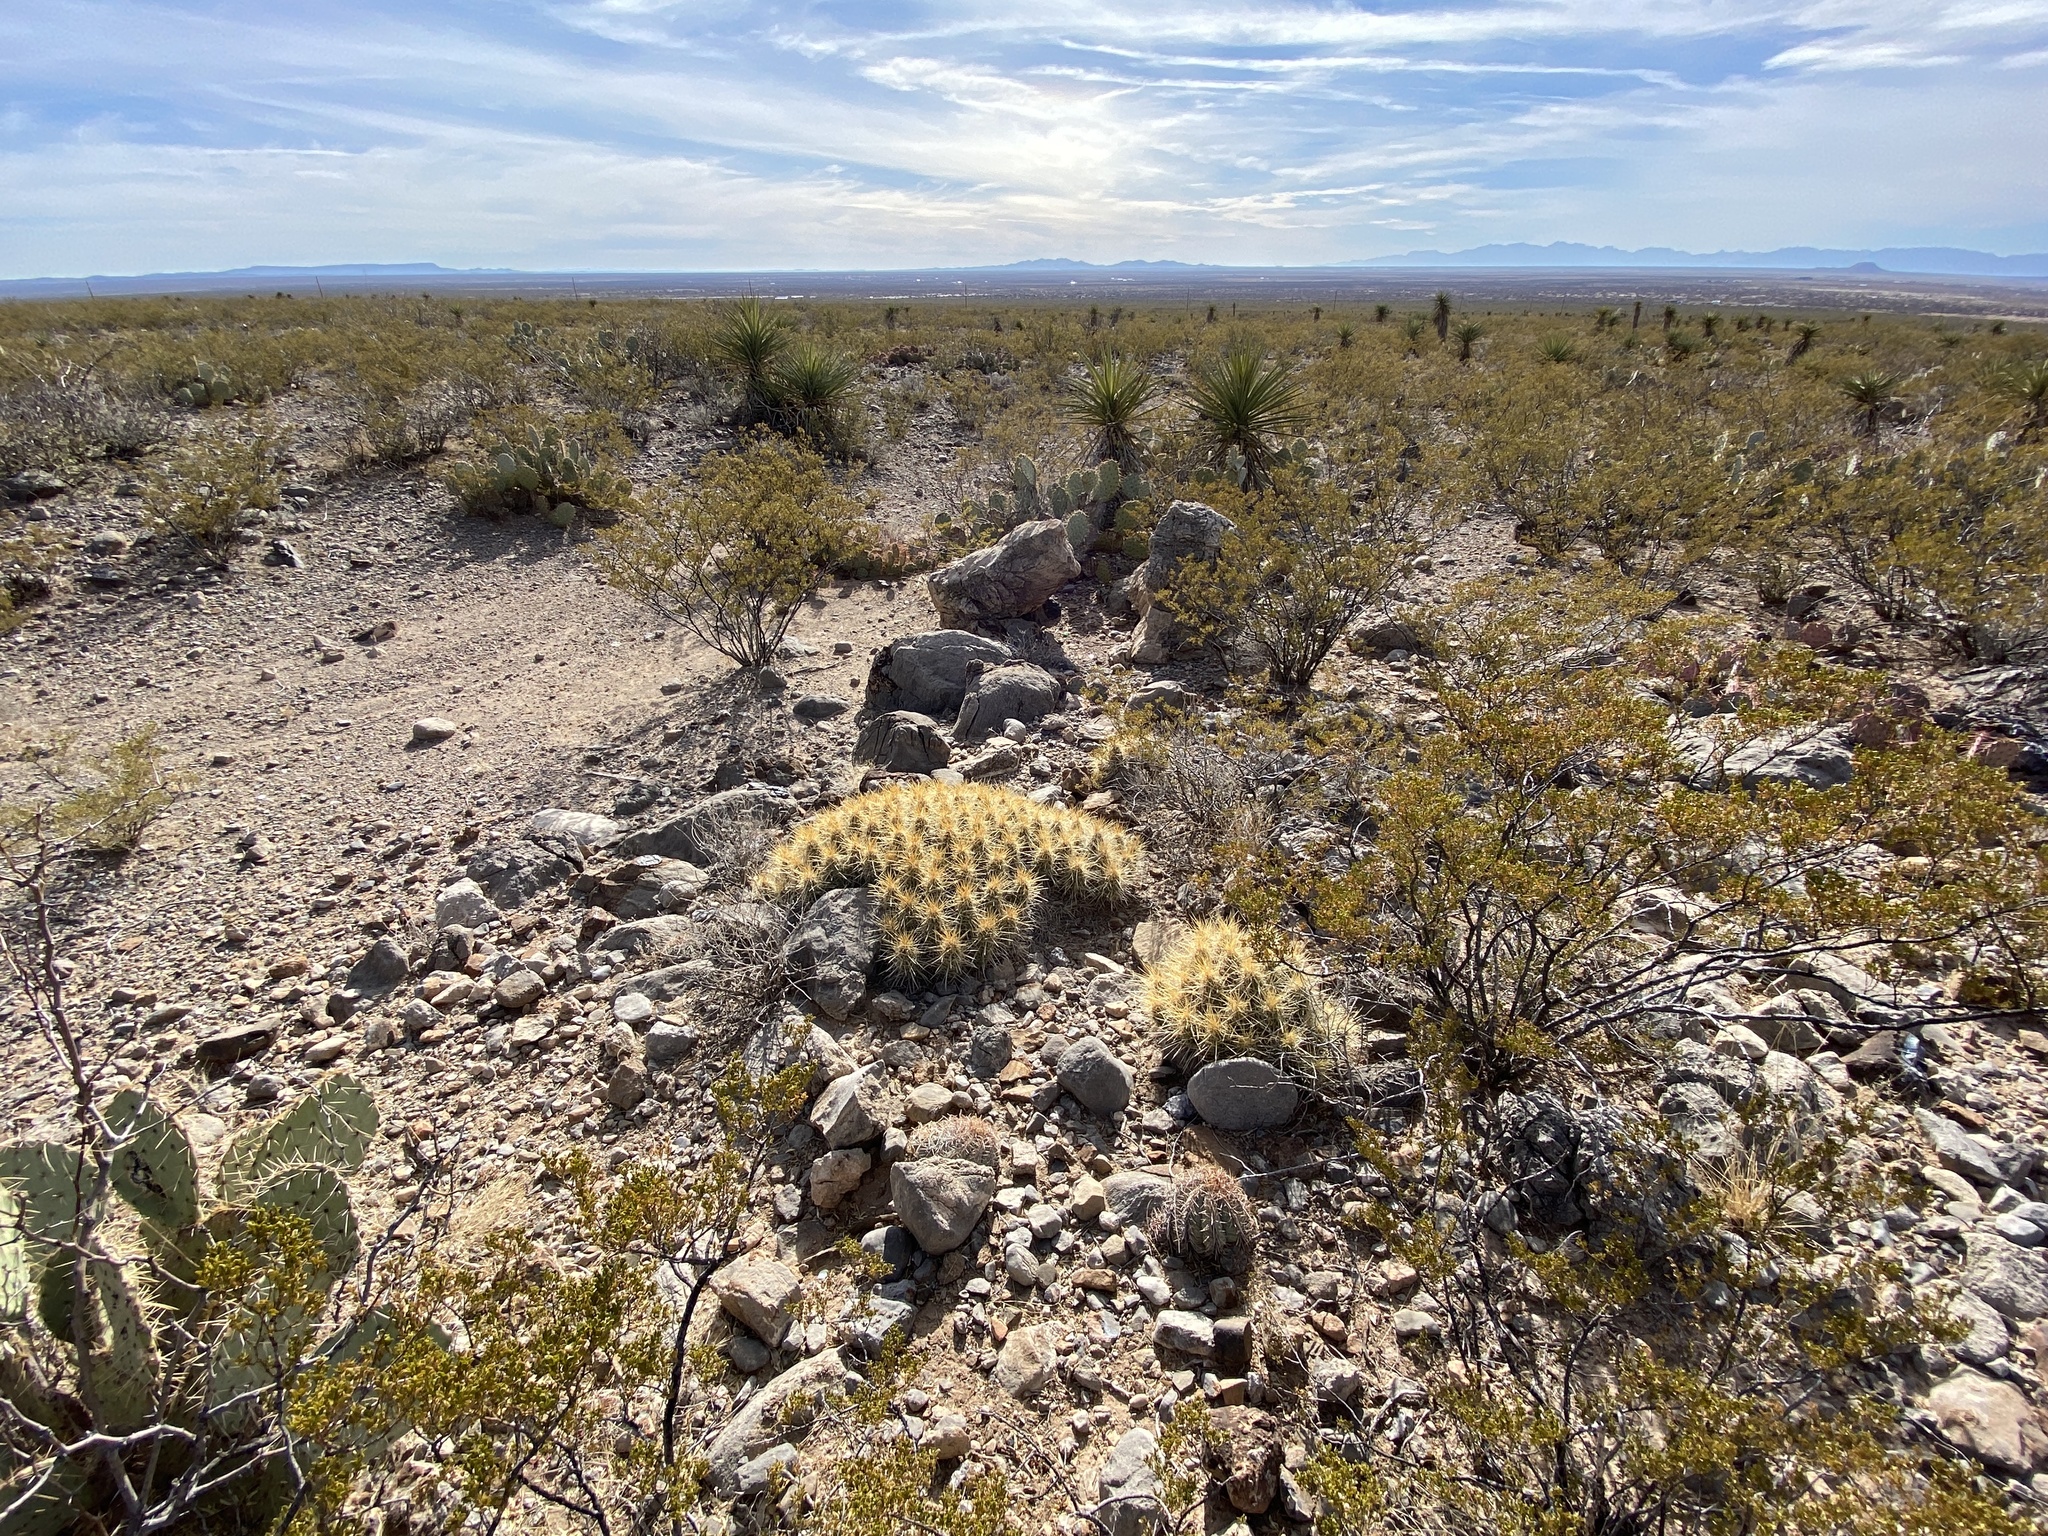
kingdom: Plantae
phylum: Tracheophyta
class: Magnoliopsida
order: Caryophyllales
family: Cactaceae
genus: Echinocereus
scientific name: Echinocereus stramineus
